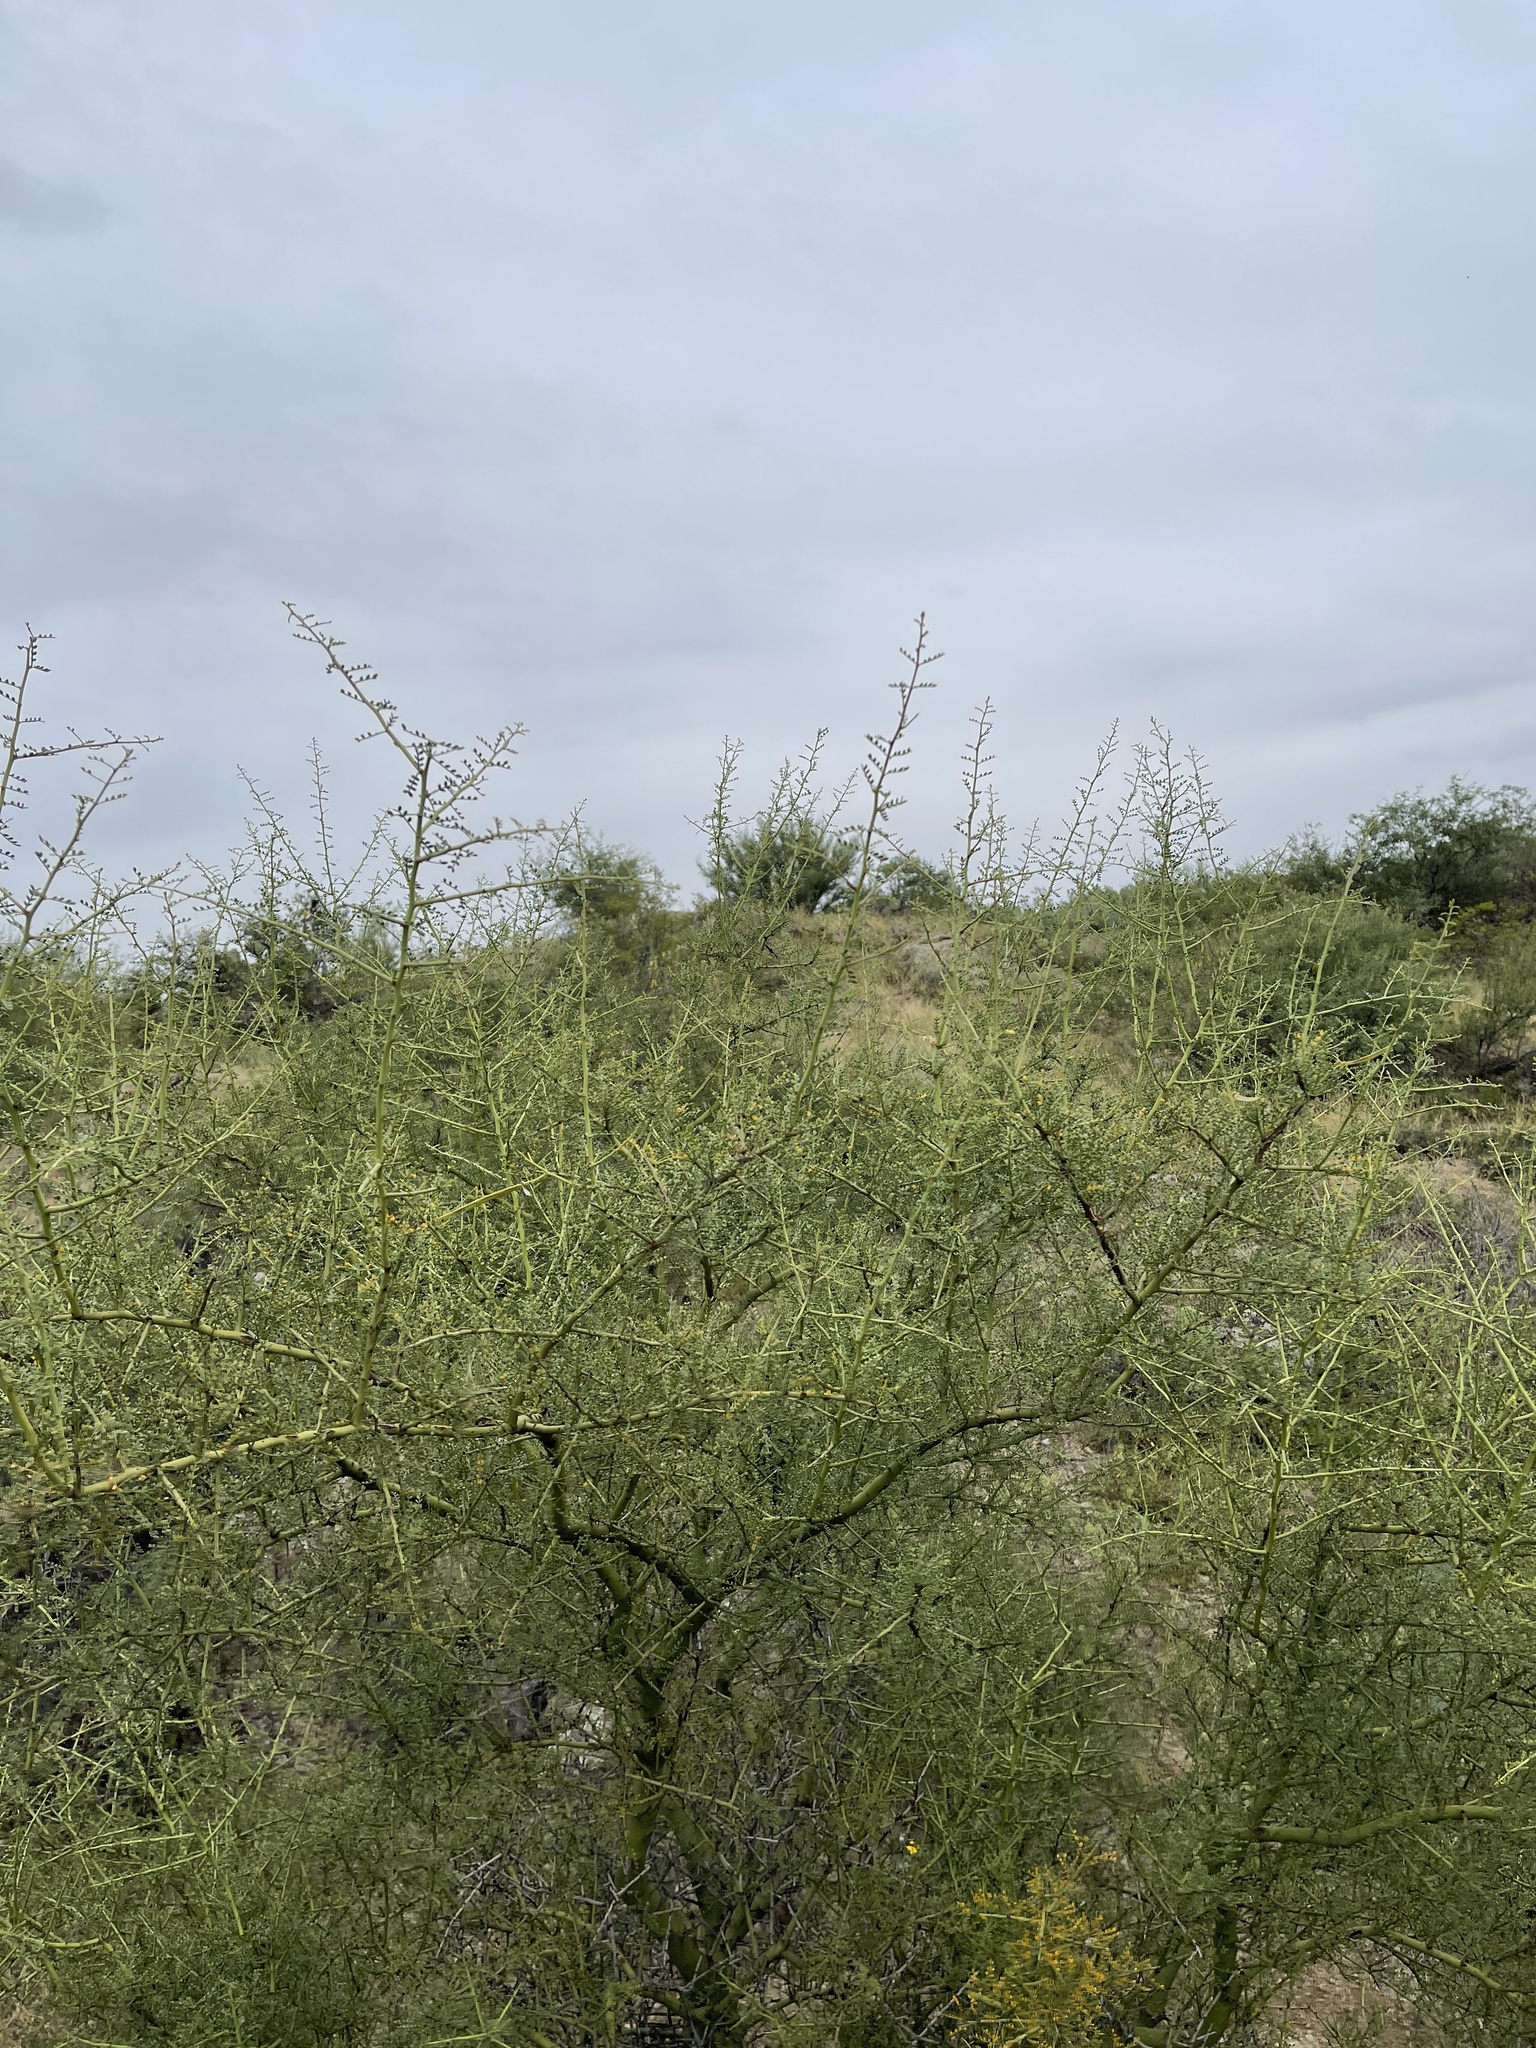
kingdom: Plantae
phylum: Tracheophyta
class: Magnoliopsida
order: Fabales
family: Fabaceae
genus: Parkinsonia
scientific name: Parkinsonia microphylla
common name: Yellow paloverde
